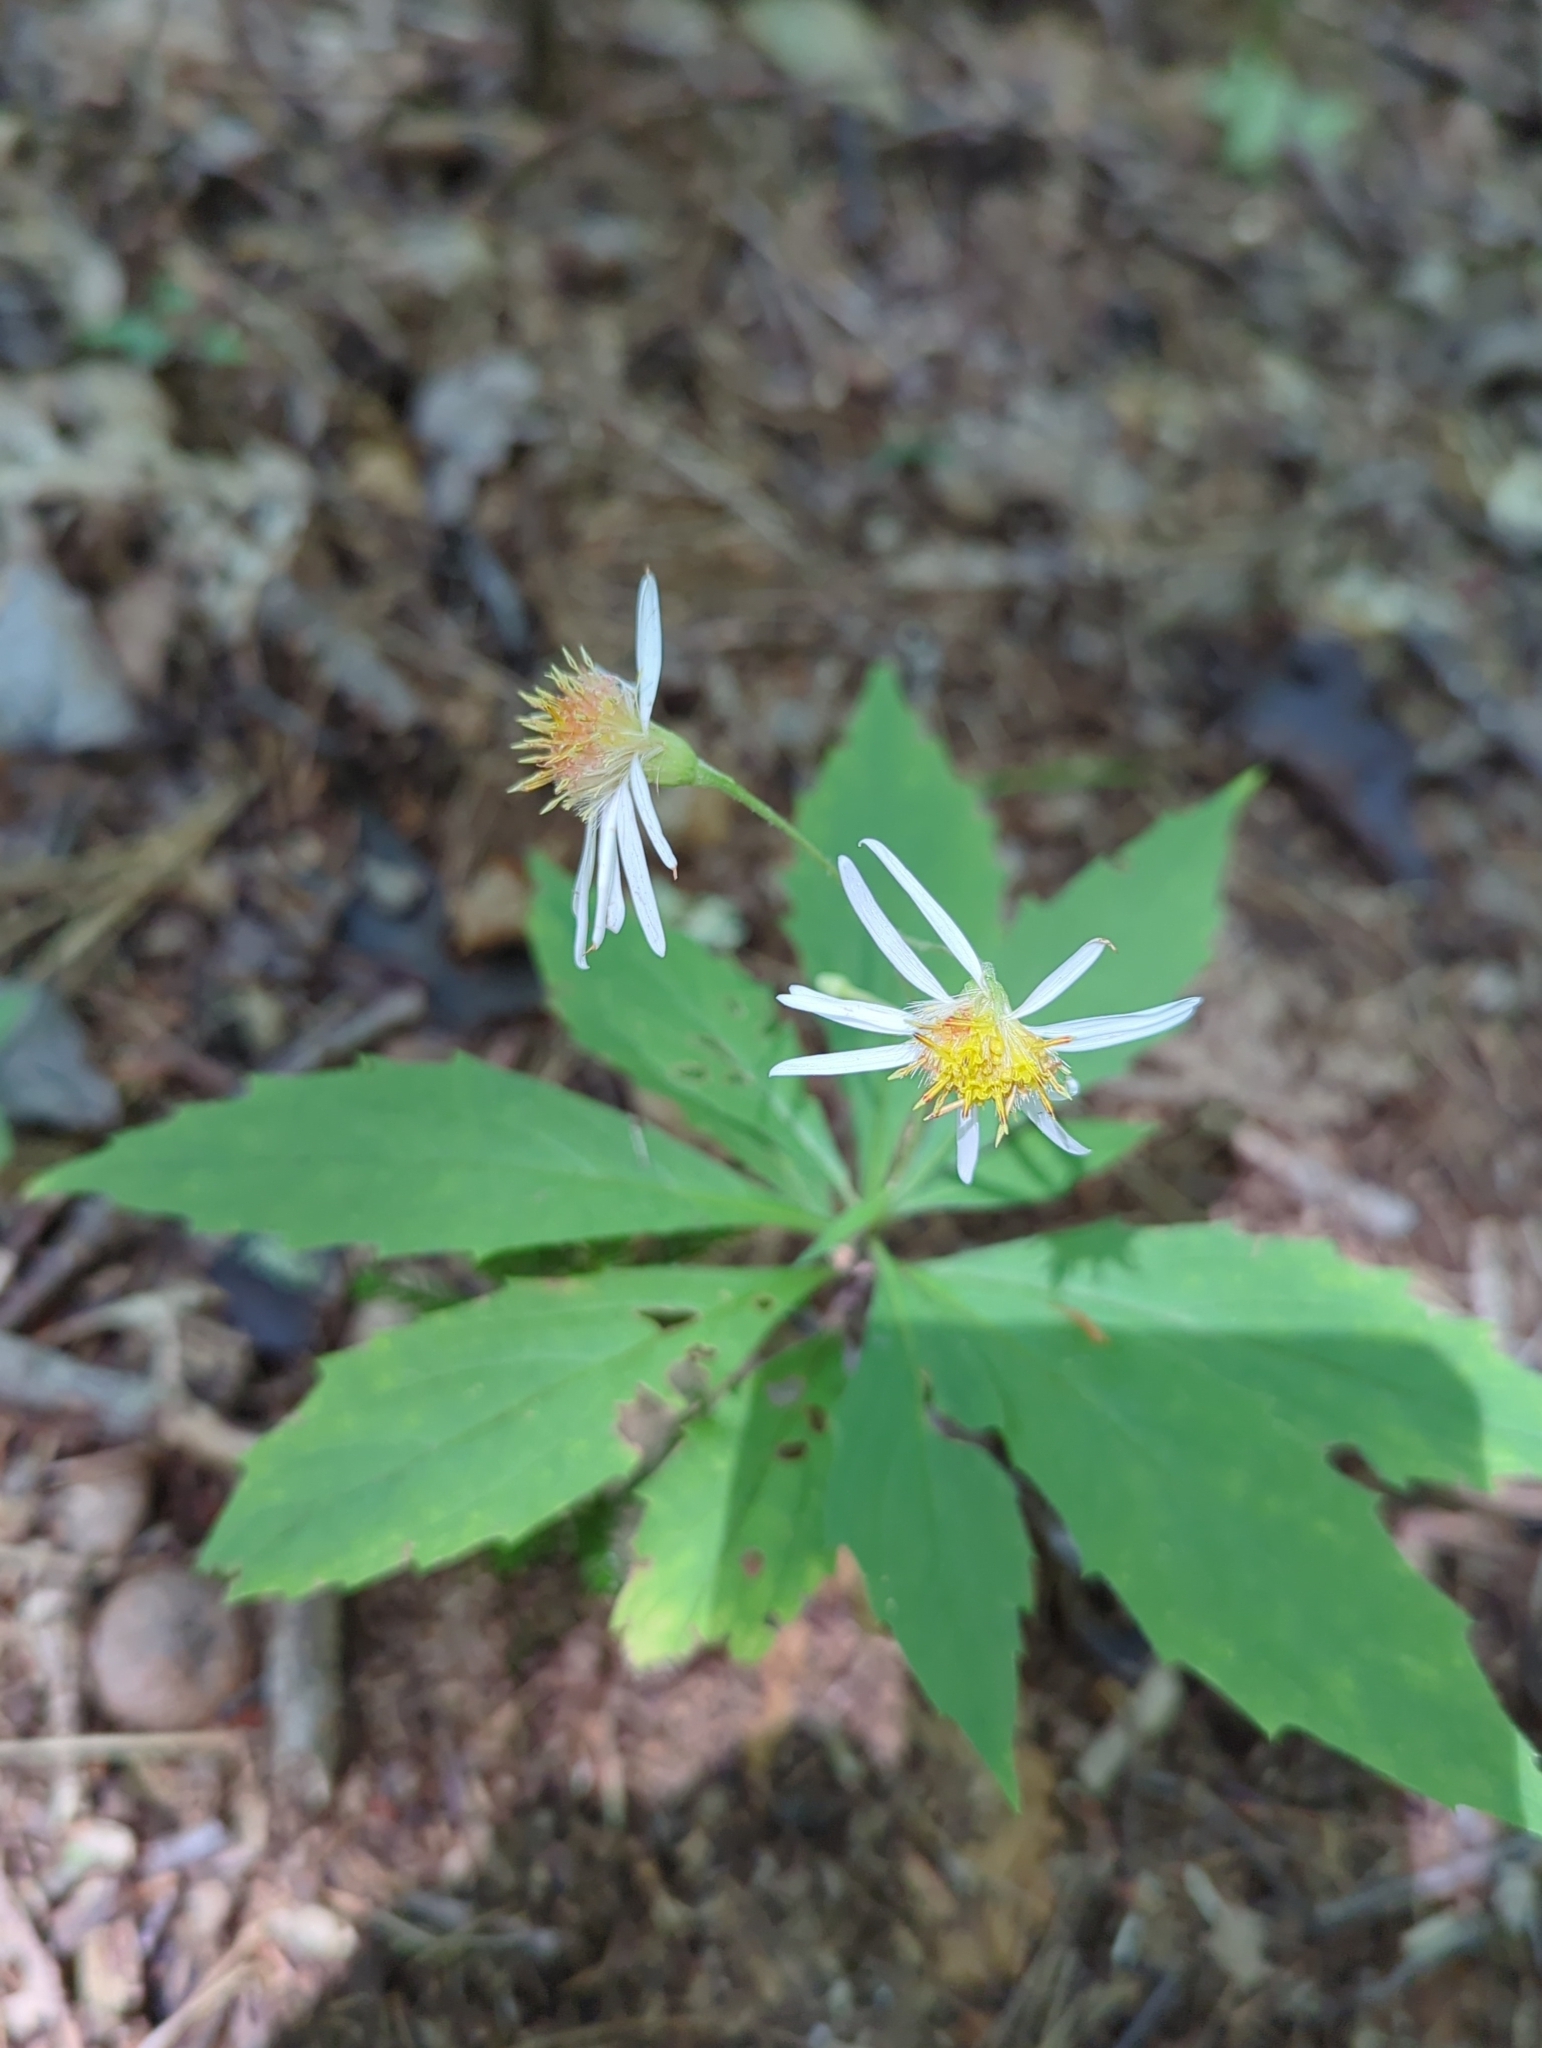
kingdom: Plantae
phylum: Tracheophyta
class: Magnoliopsida
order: Asterales
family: Asteraceae
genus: Oclemena
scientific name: Oclemena acuminata
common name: Mountain aster
